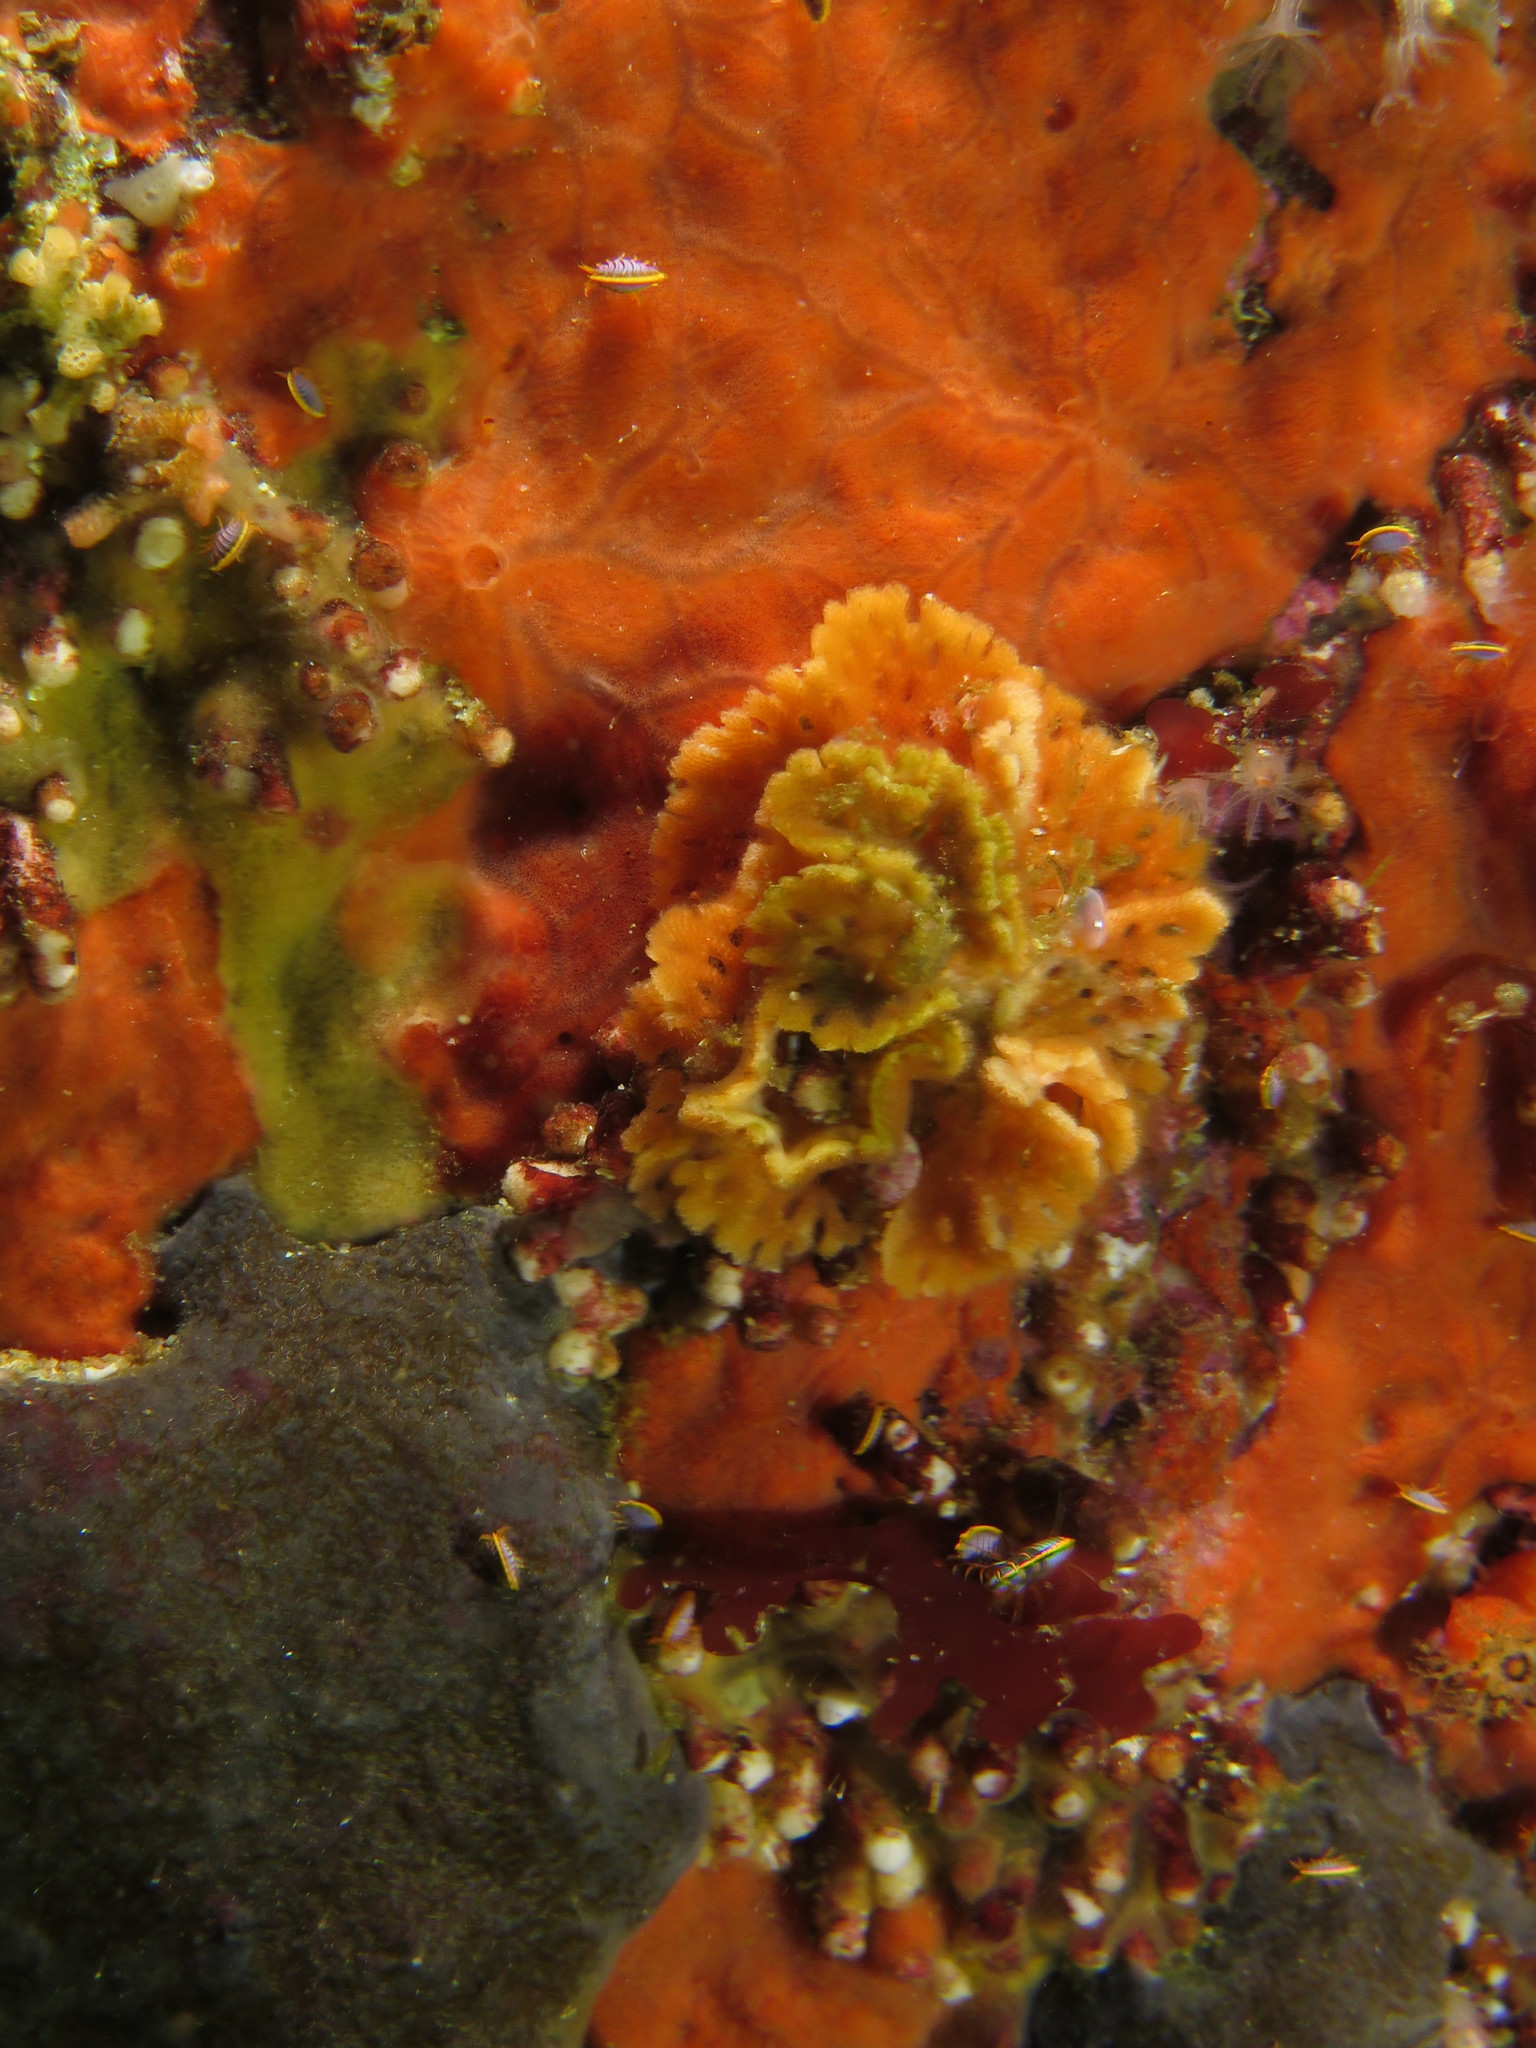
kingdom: Animalia
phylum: Bryozoa
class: Gymnolaemata
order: Cheilostomatida
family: Phidoloporidae
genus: Schizoretepora
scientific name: Schizoretepora tessellata
